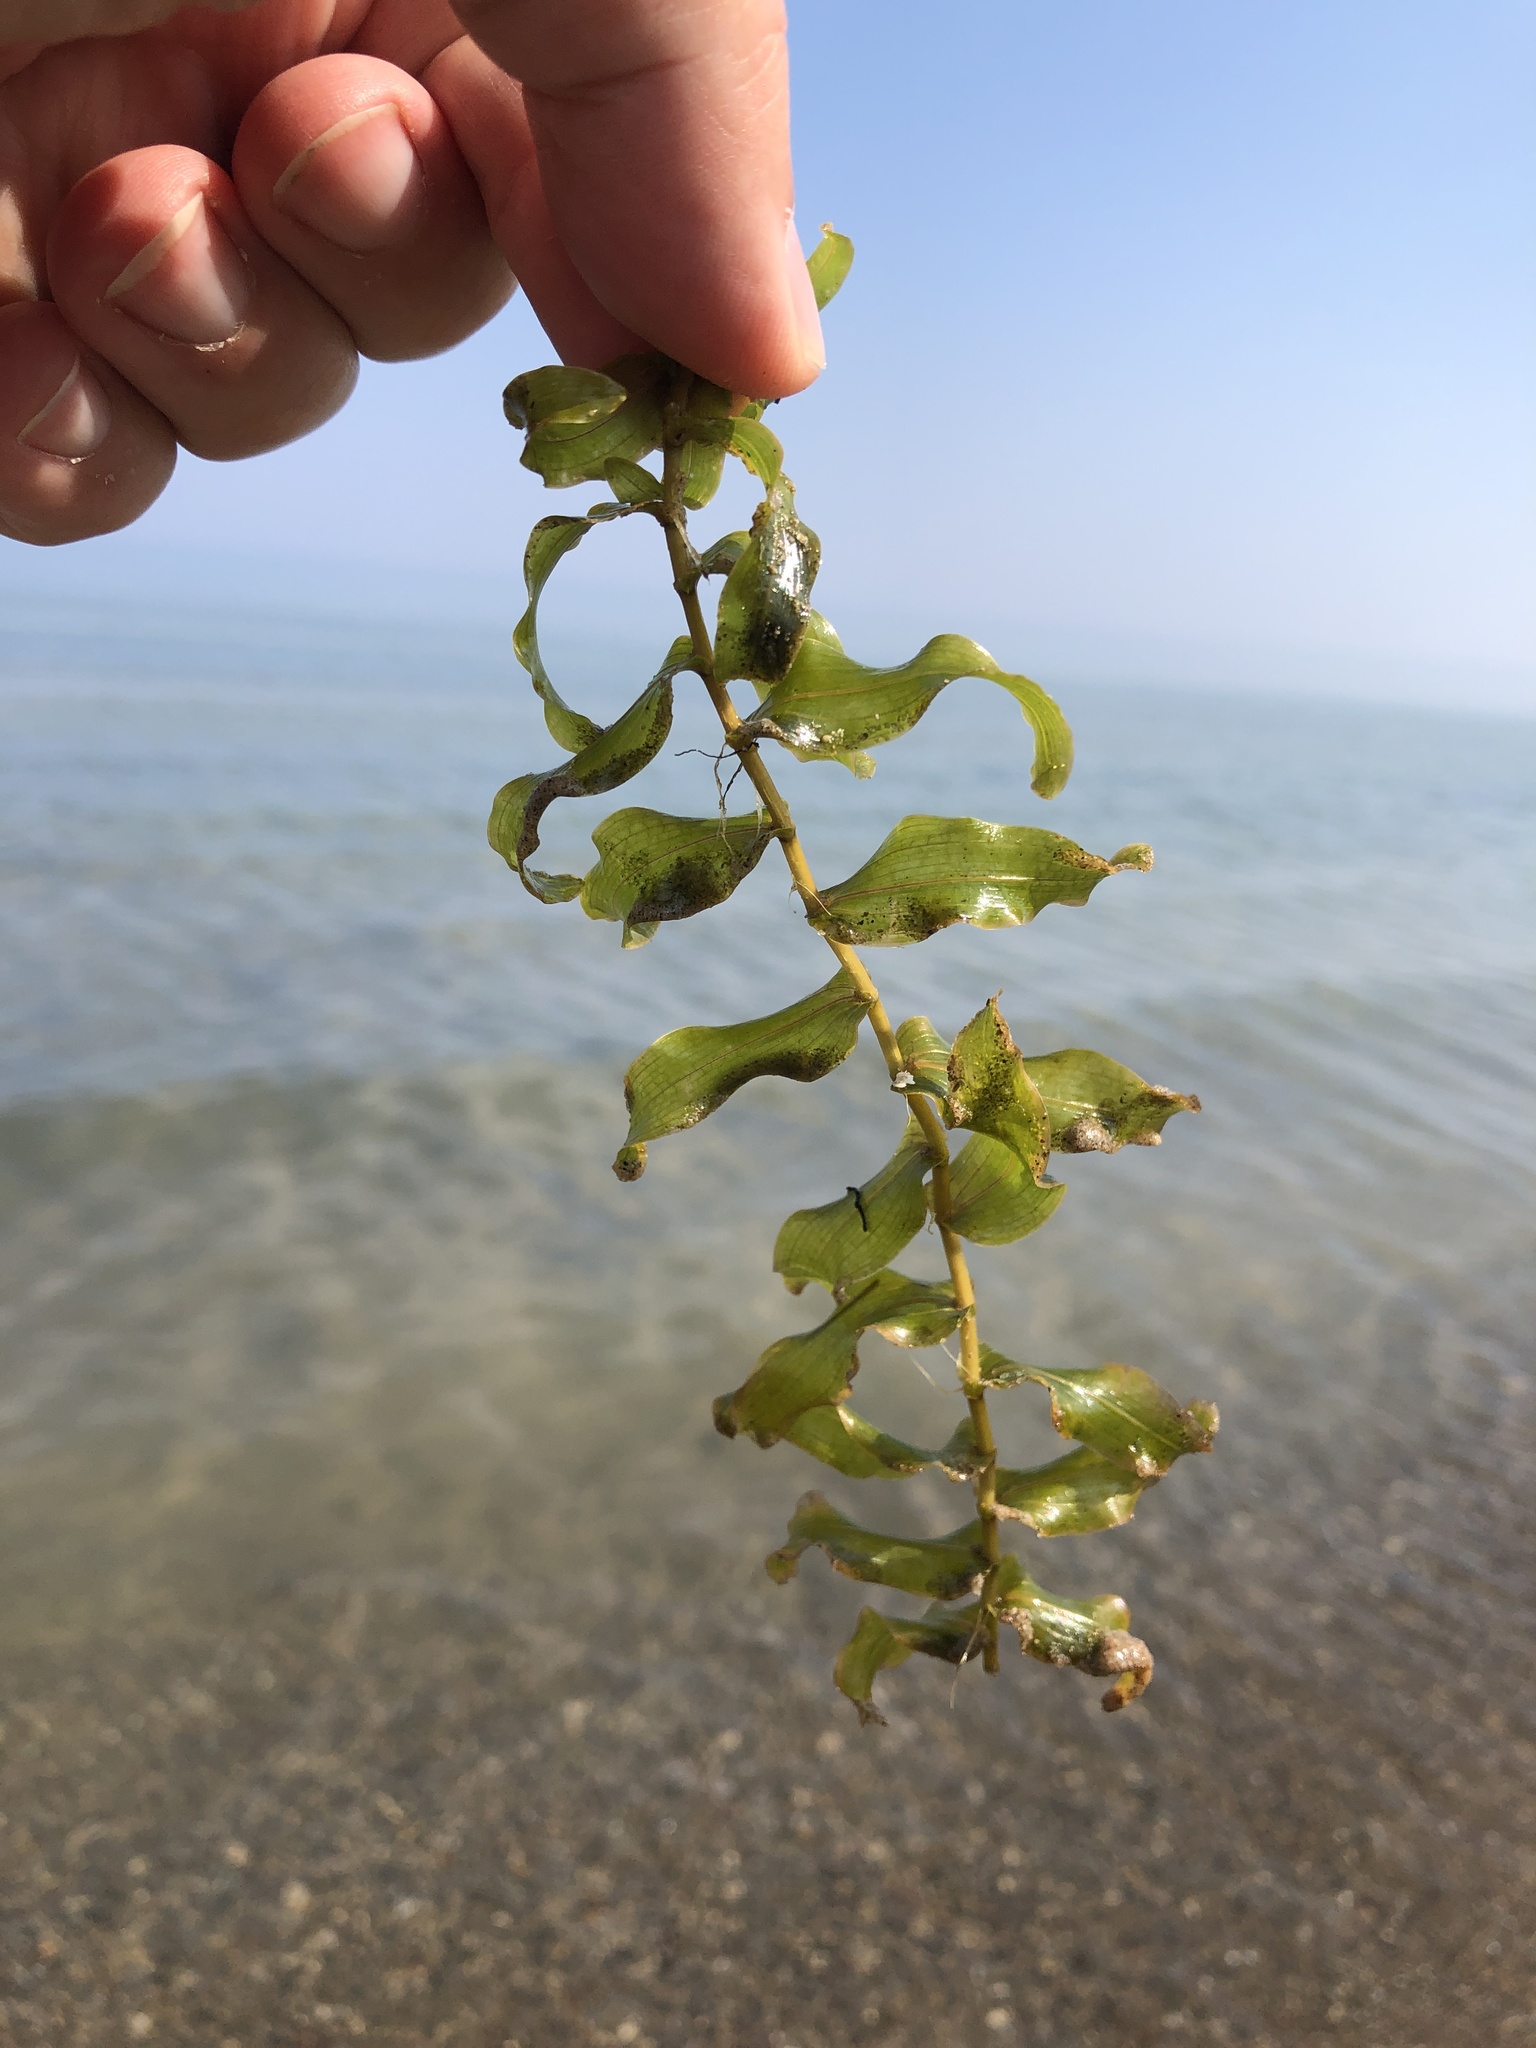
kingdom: Plantae
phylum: Tracheophyta
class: Liliopsida
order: Alismatales
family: Potamogetonaceae
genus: Potamogeton
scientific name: Potamogeton richardsonii
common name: Richardson's pondweed
